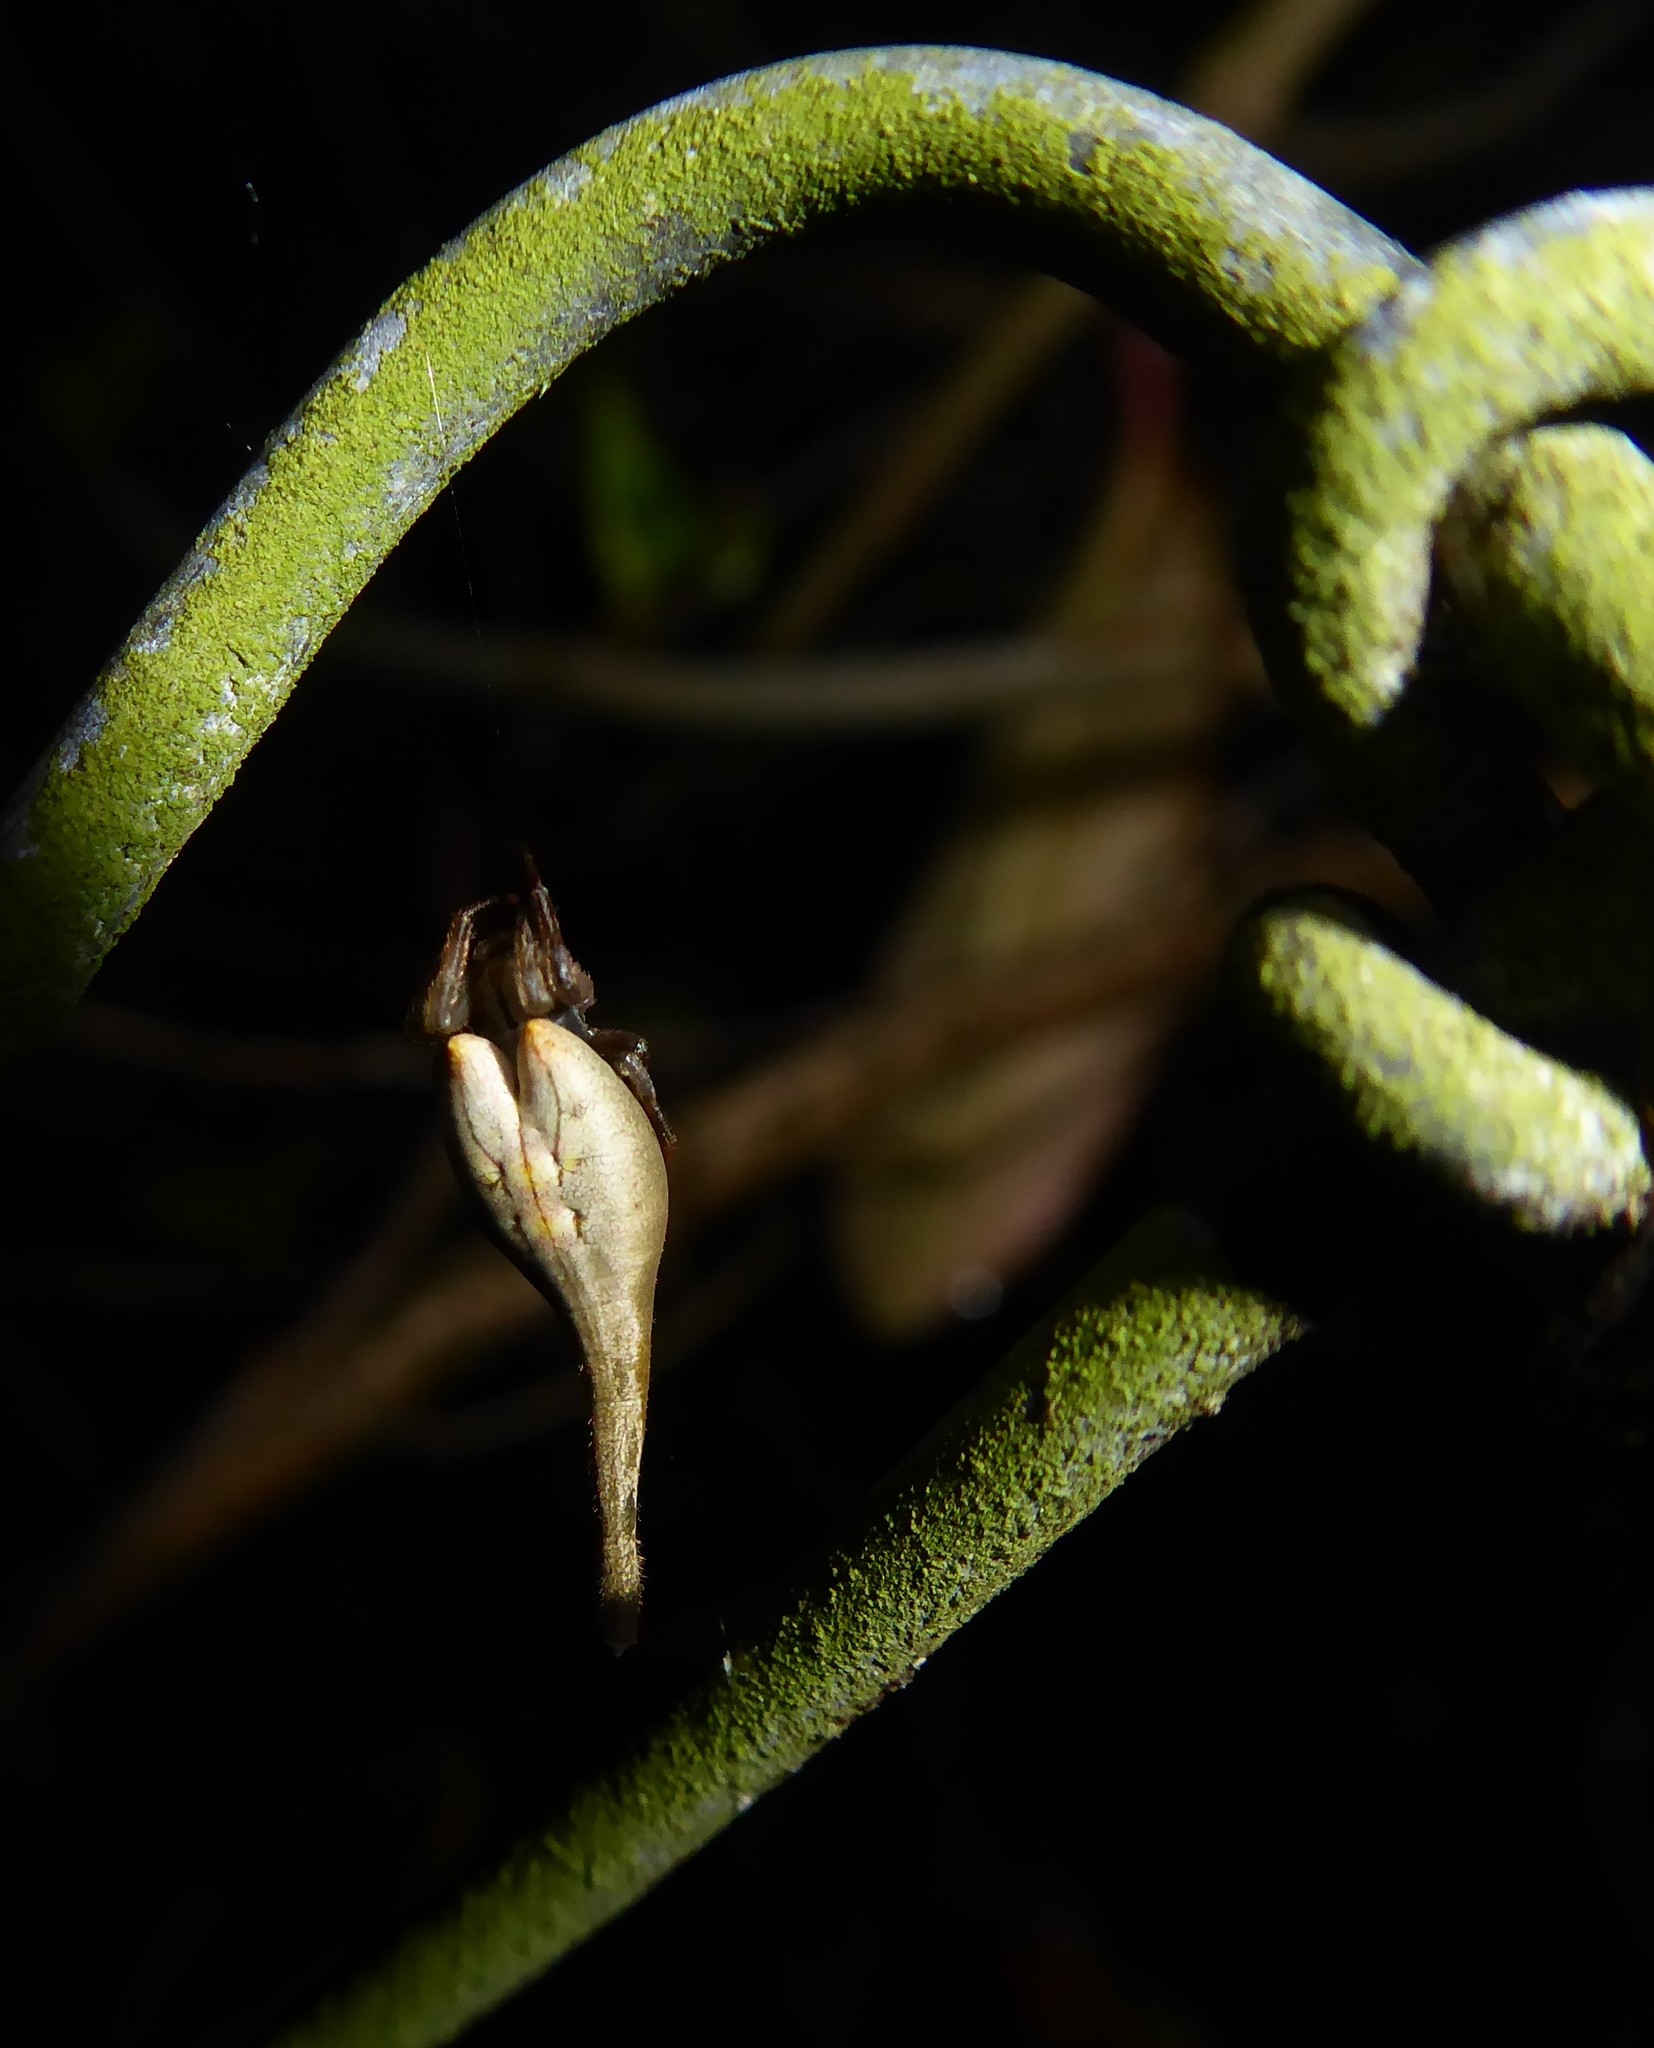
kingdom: Animalia
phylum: Arthropoda
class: Arachnida
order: Araneae
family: Araneidae
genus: Arachnura
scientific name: Arachnura feredayi
